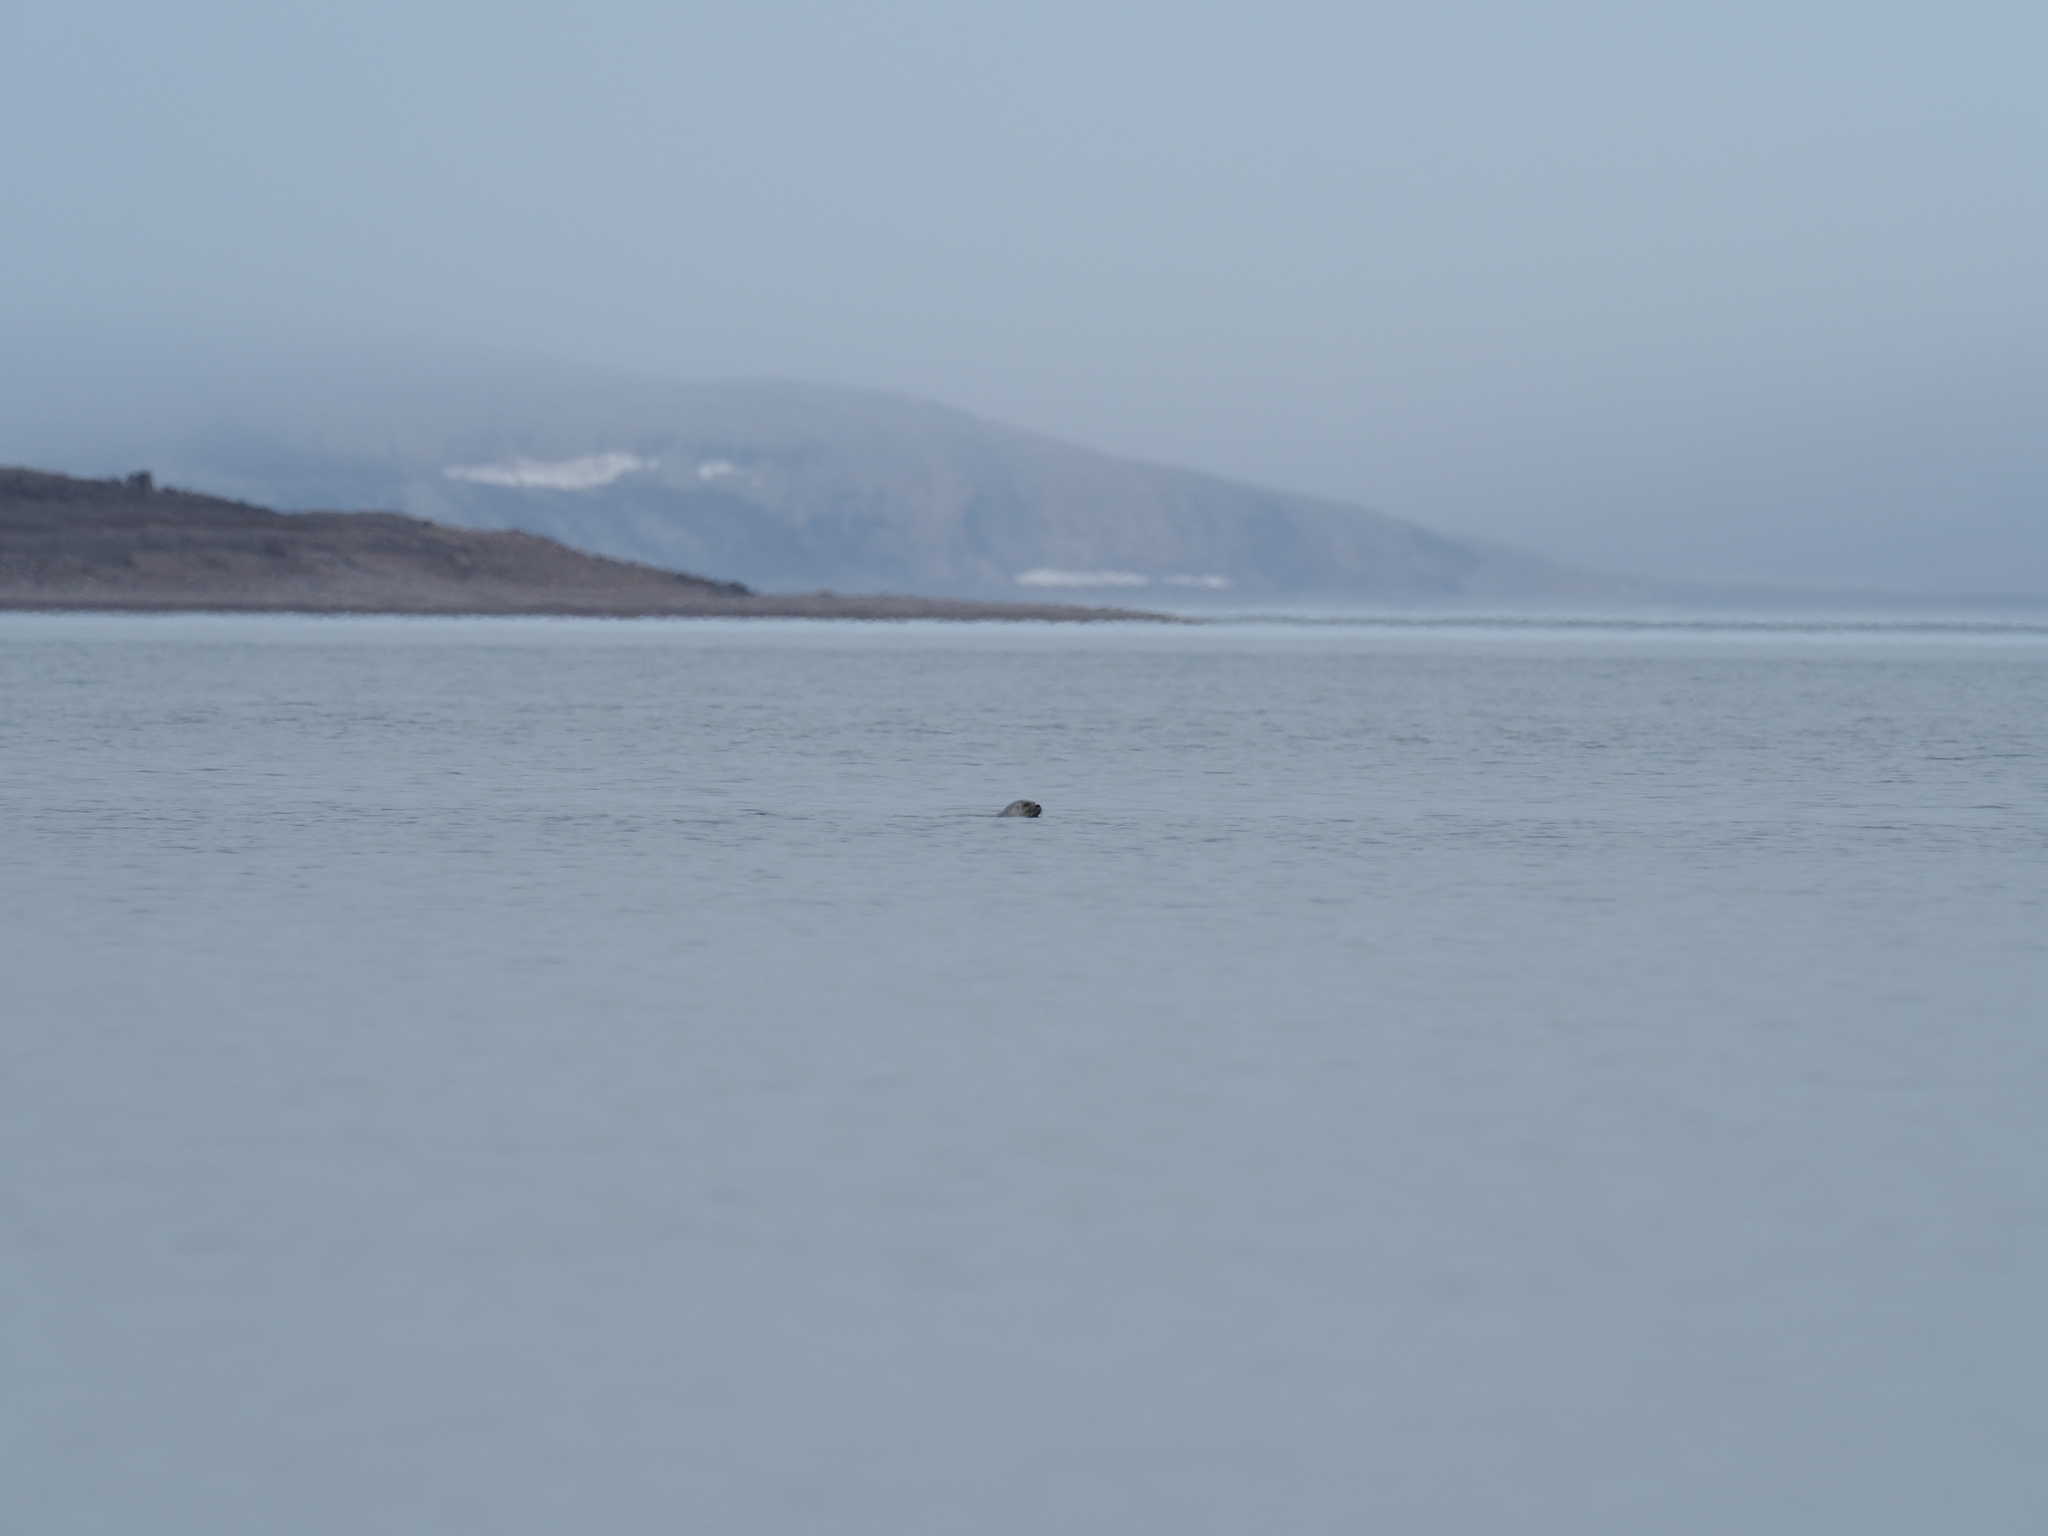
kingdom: Animalia
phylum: Chordata
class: Mammalia
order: Carnivora
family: Phocidae
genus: Pusa
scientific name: Pusa hispida
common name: Ringed seal
